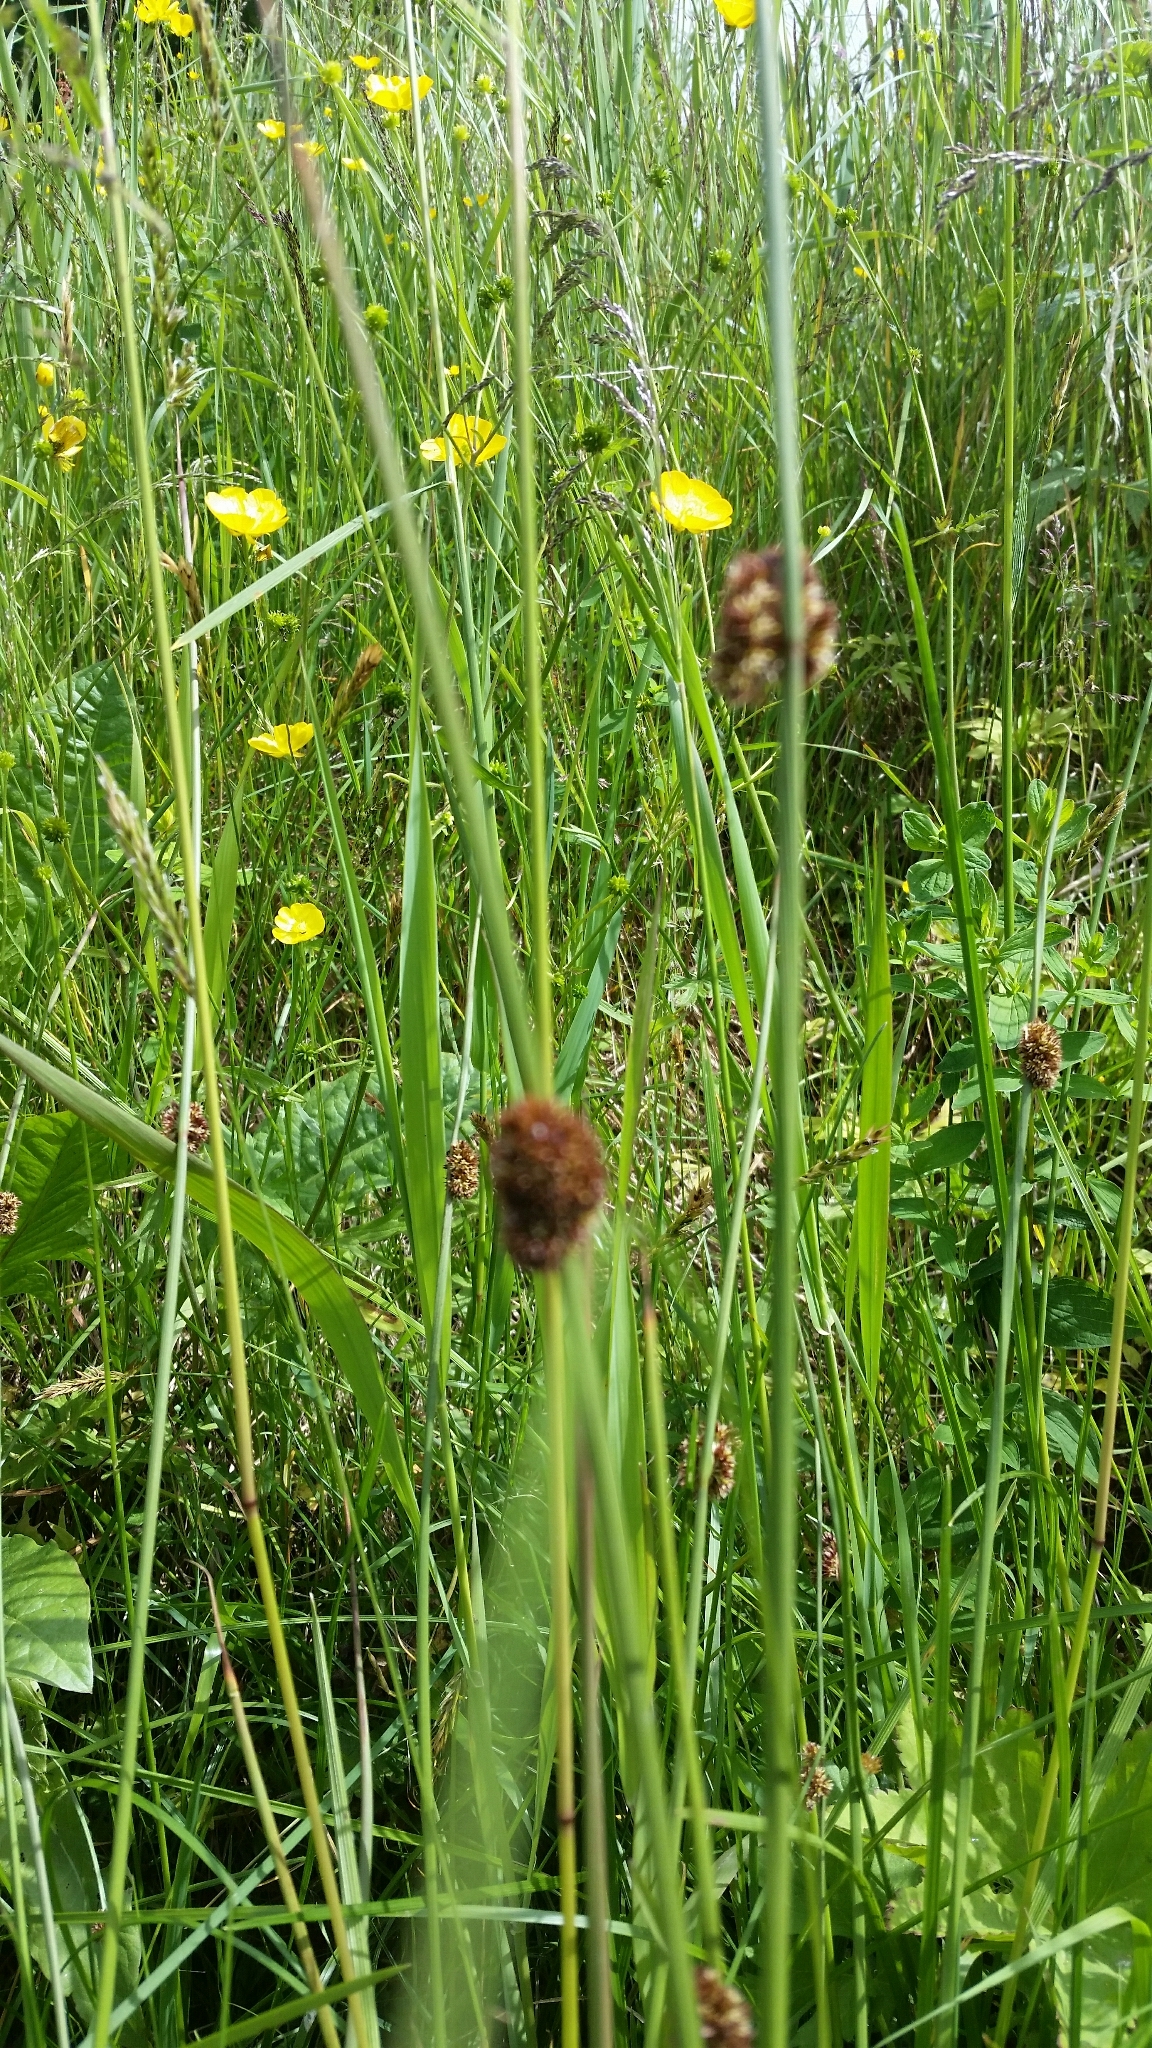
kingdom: Plantae
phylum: Tracheophyta
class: Liliopsida
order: Poales
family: Juncaceae
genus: Juncus
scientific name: Juncus conglomeratus
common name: Compact rush
